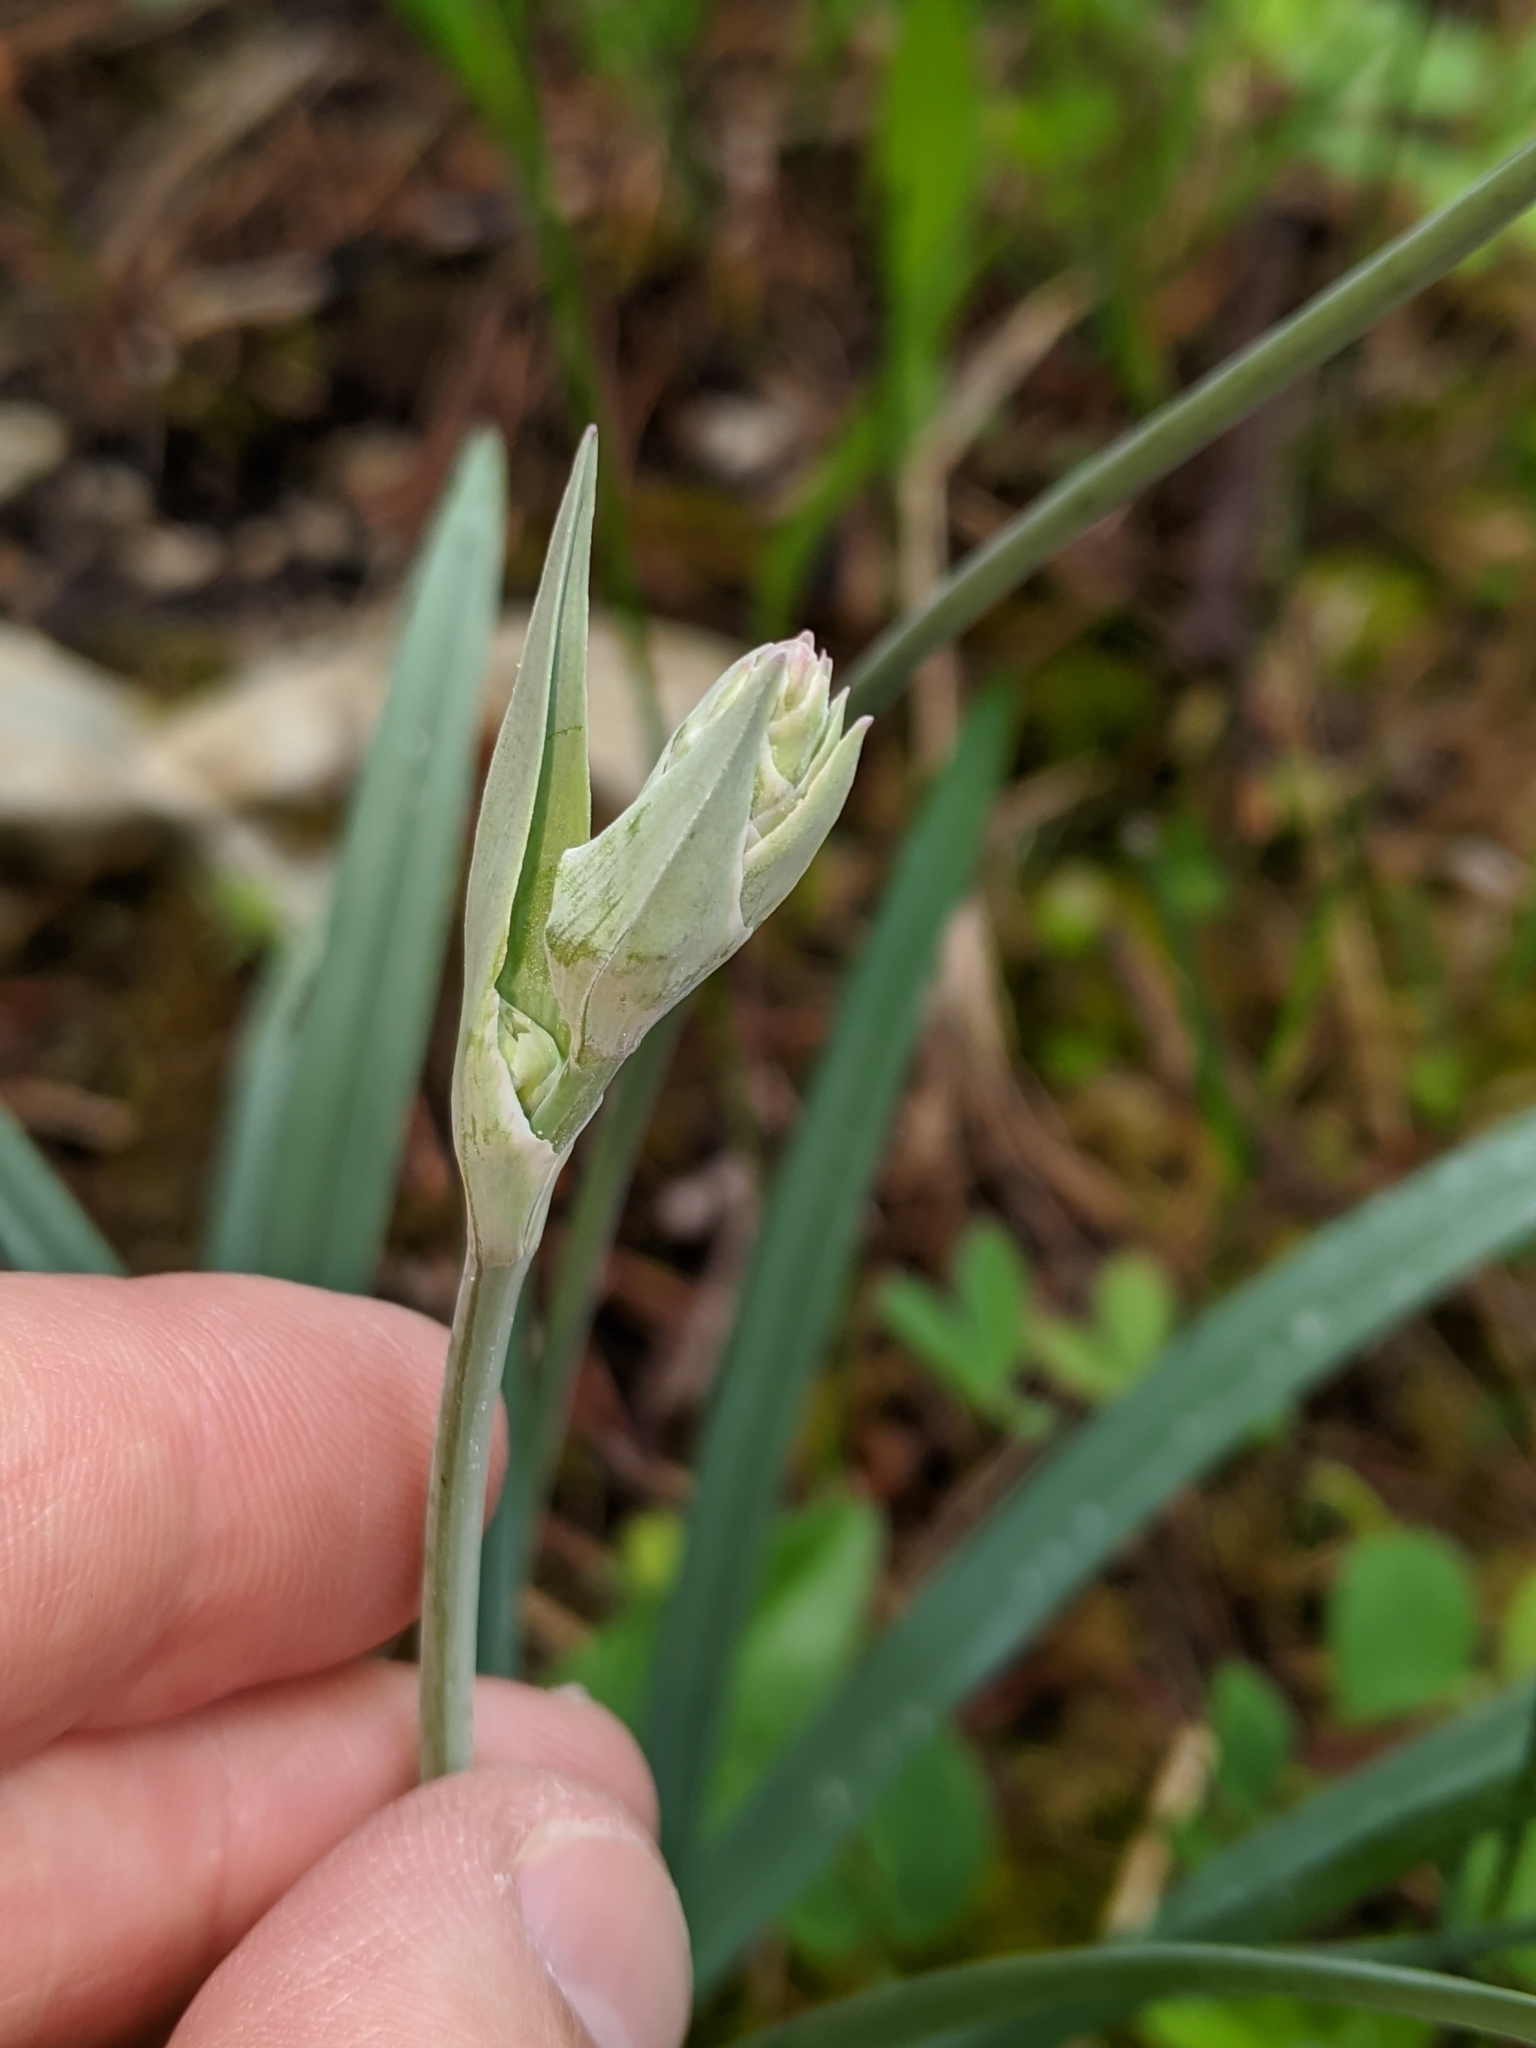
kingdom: Plantae
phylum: Tracheophyta
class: Liliopsida
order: Liliales
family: Melanthiaceae
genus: Anticlea
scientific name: Anticlea elegans
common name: Mountain death camas
